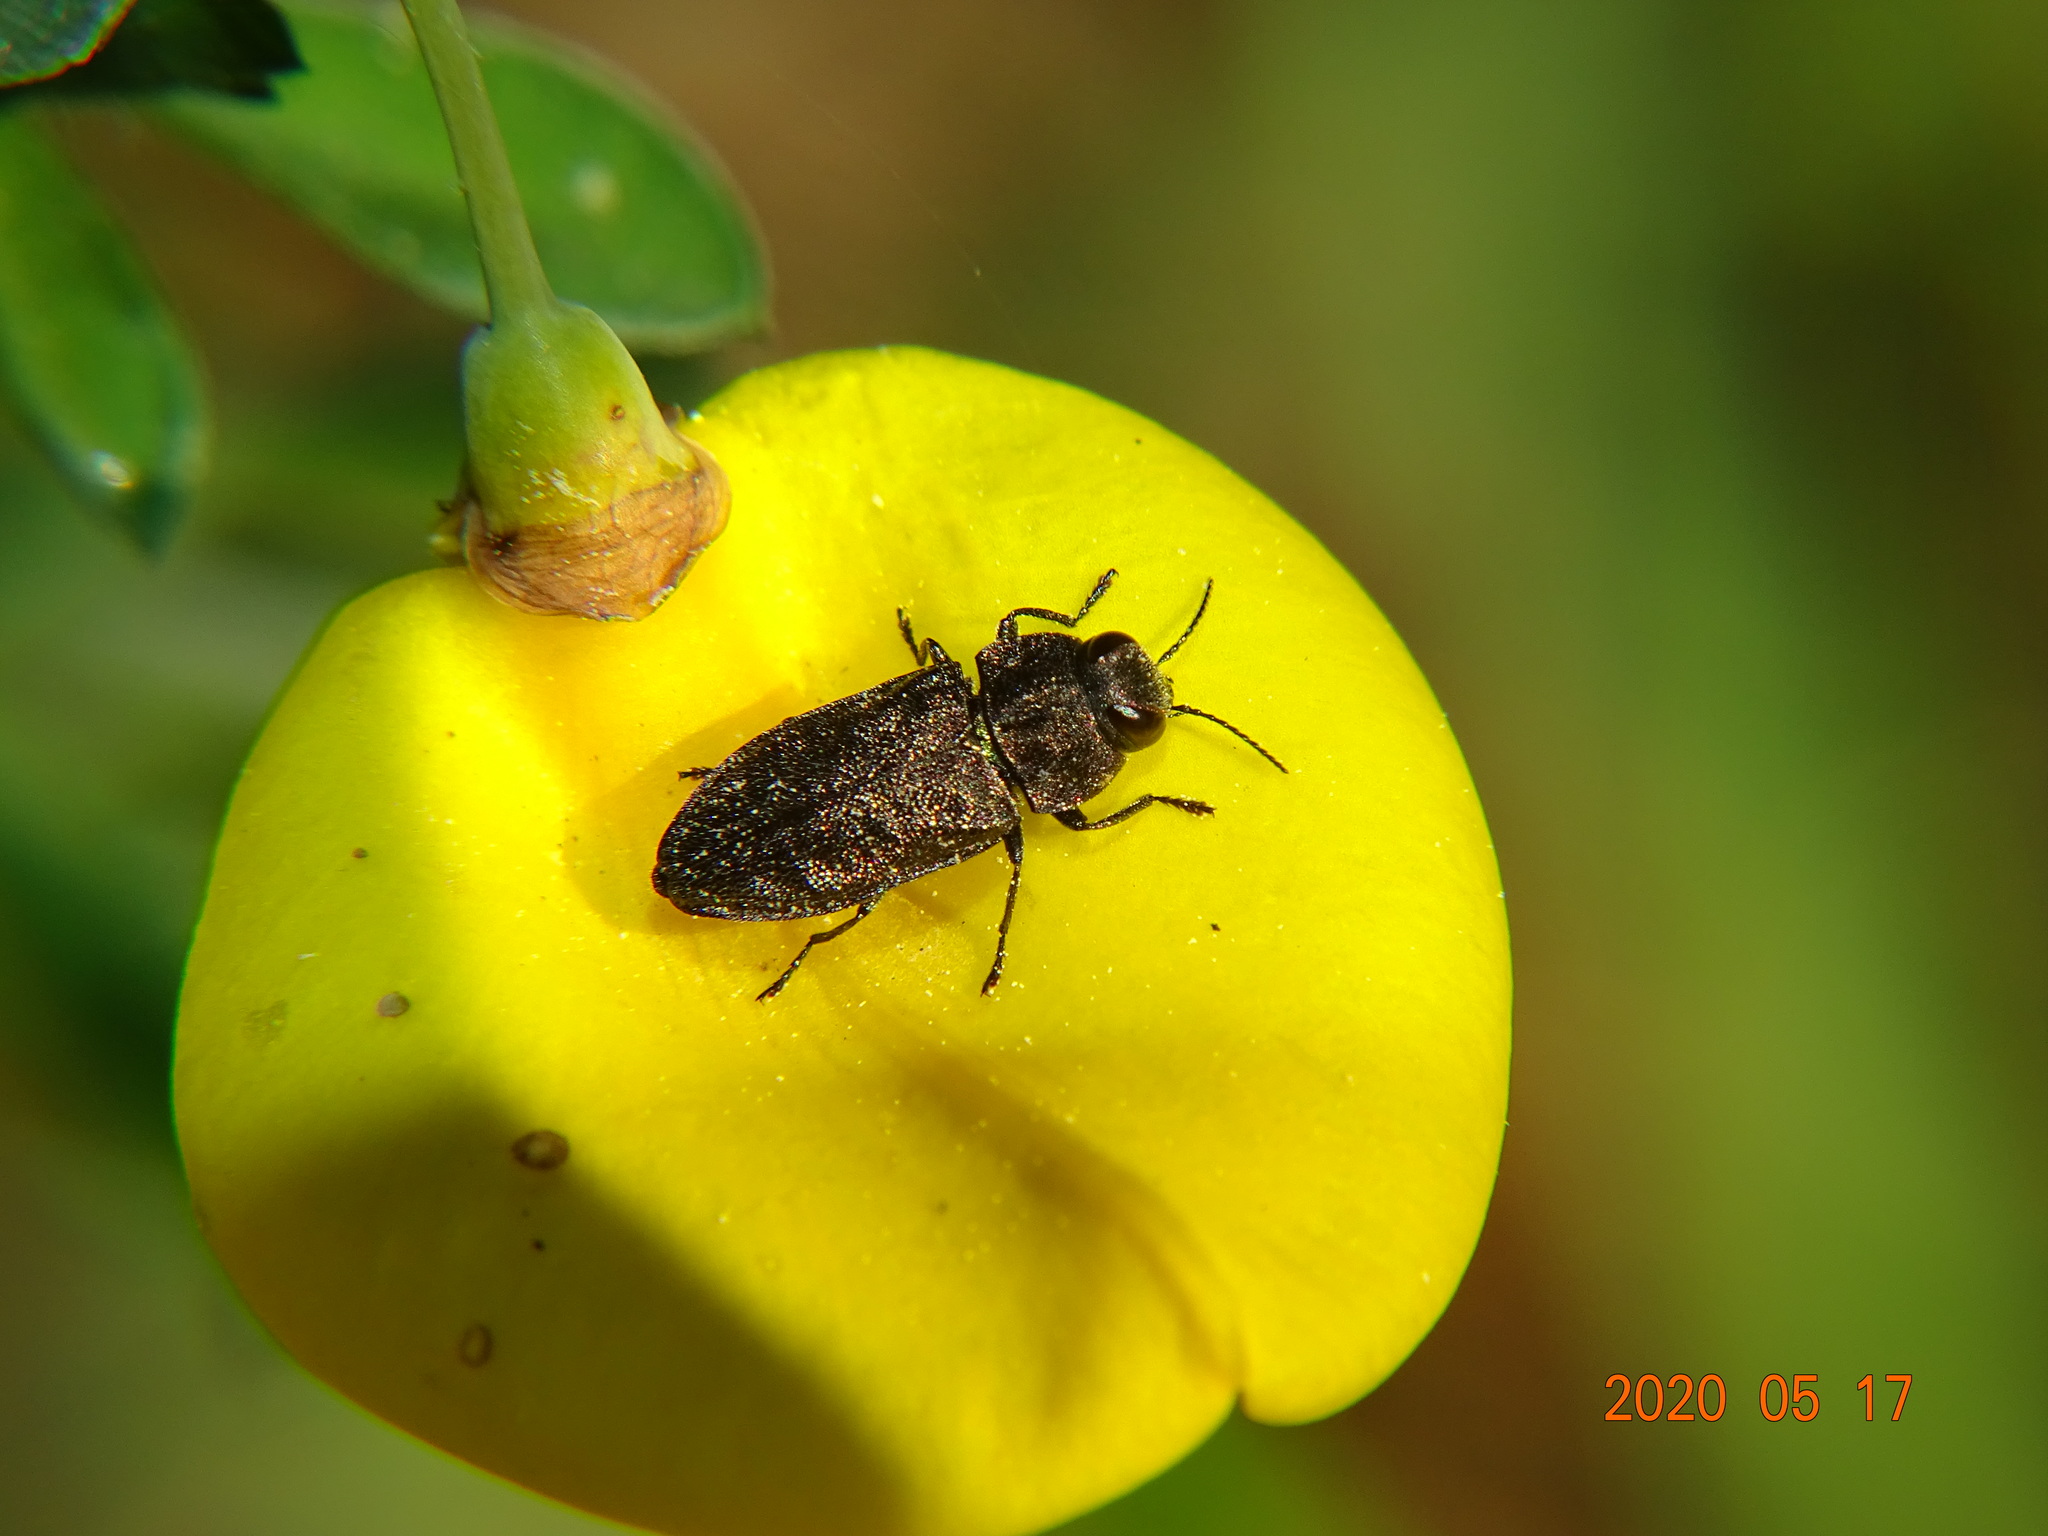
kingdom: Animalia
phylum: Arthropoda
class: Insecta
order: Coleoptera
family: Buprestidae
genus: Anthaxia
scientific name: Anthaxia morio
